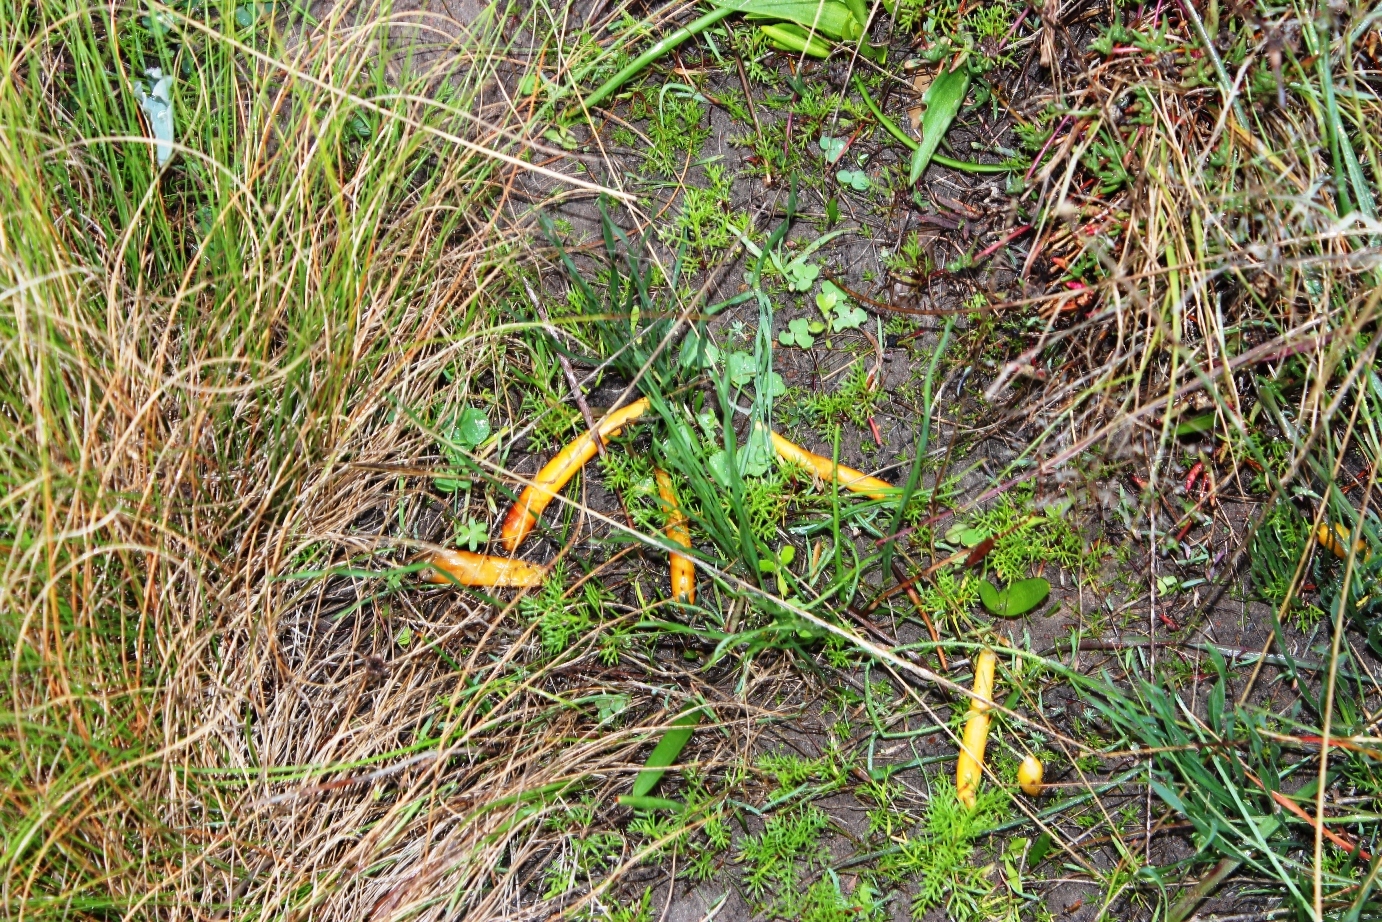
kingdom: Plantae
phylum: Tracheophyta
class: Liliopsida
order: Asparagales
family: Amaryllidaceae
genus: Gethyllis
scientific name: Gethyllis afra
